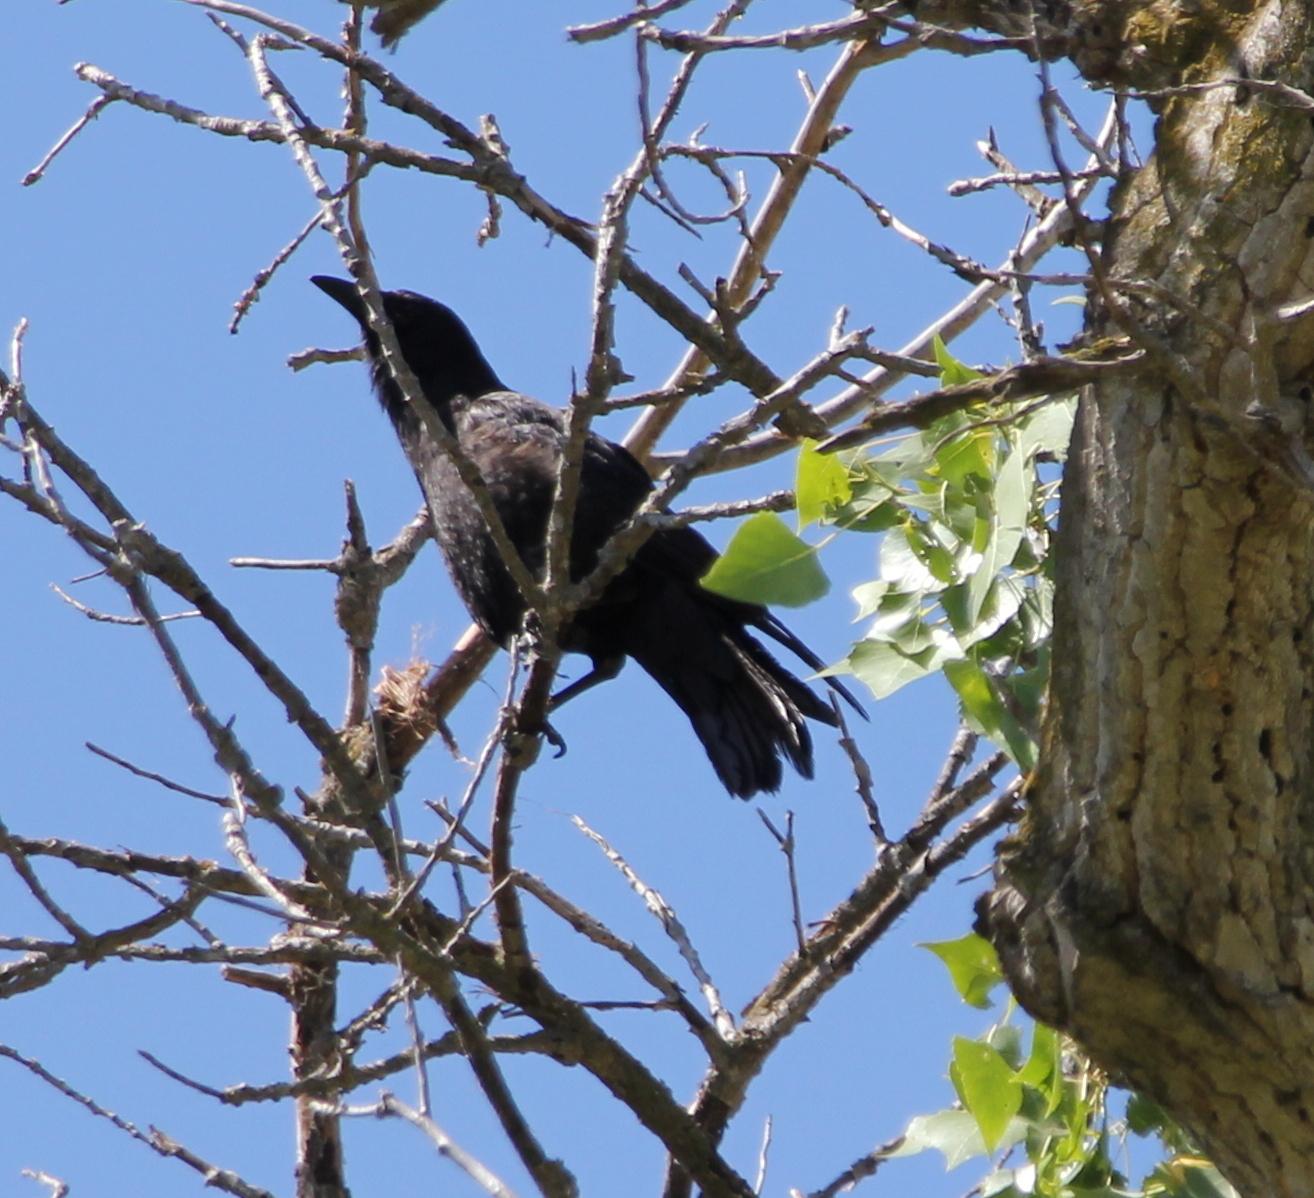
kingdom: Animalia
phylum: Chordata
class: Aves
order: Passeriformes
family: Corvidae
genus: Corvus
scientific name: Corvus brachyrhynchos
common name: American crow
